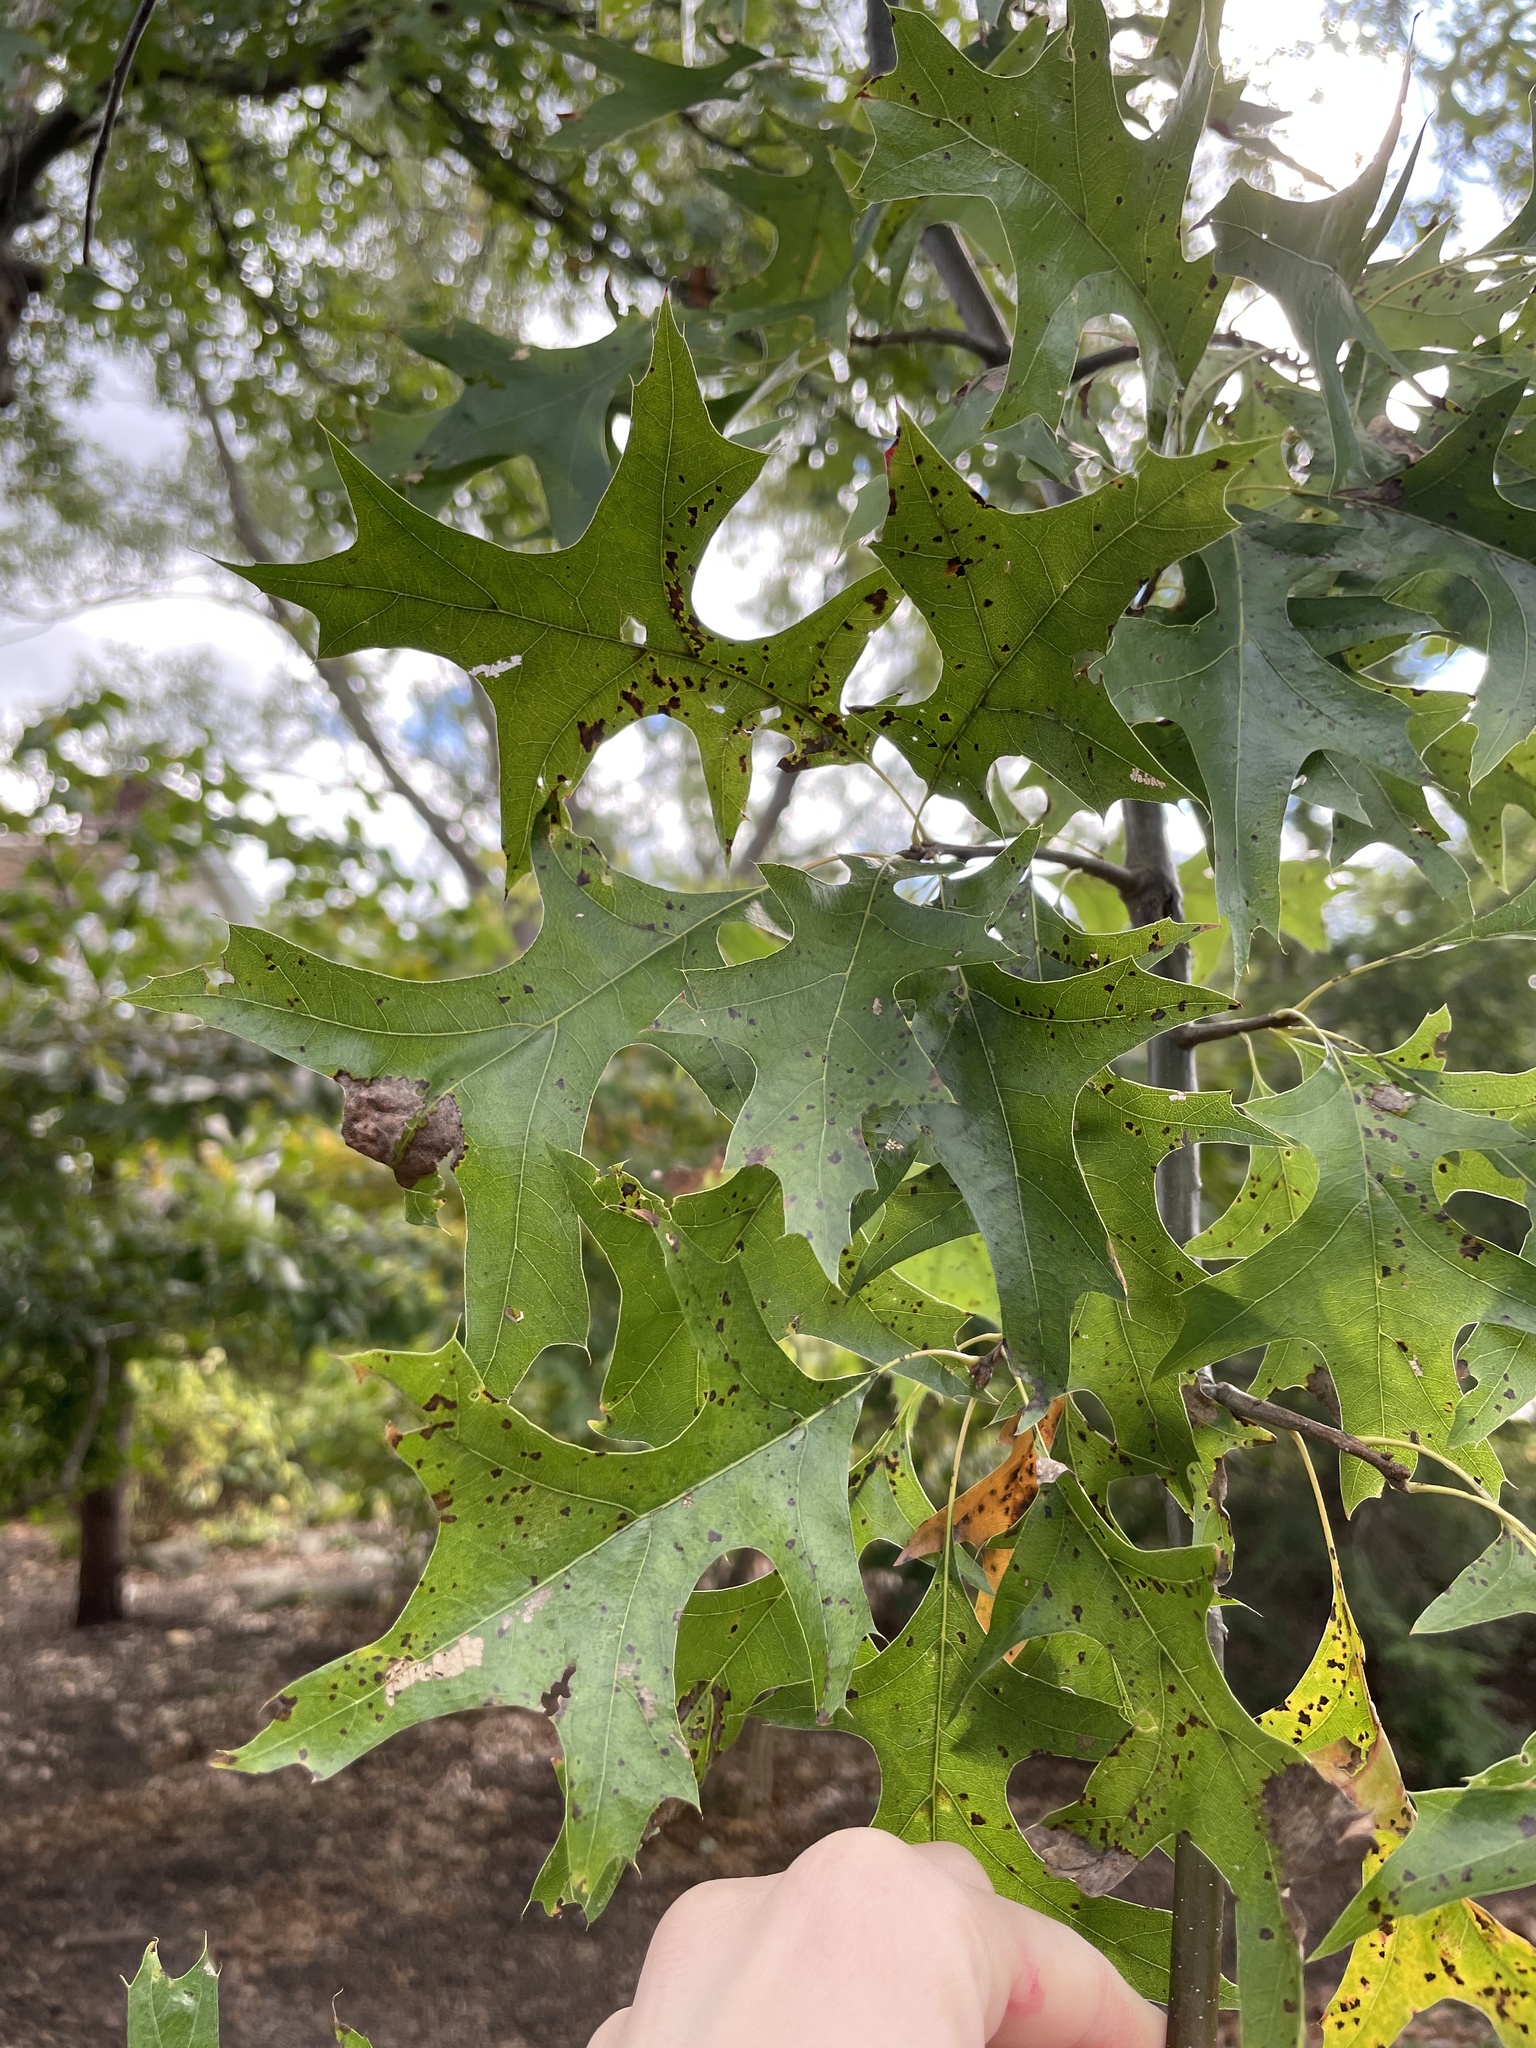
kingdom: Plantae
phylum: Tracheophyta
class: Magnoliopsida
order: Fagales
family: Fagaceae
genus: Quercus
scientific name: Quercus palustris
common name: Pin oak
